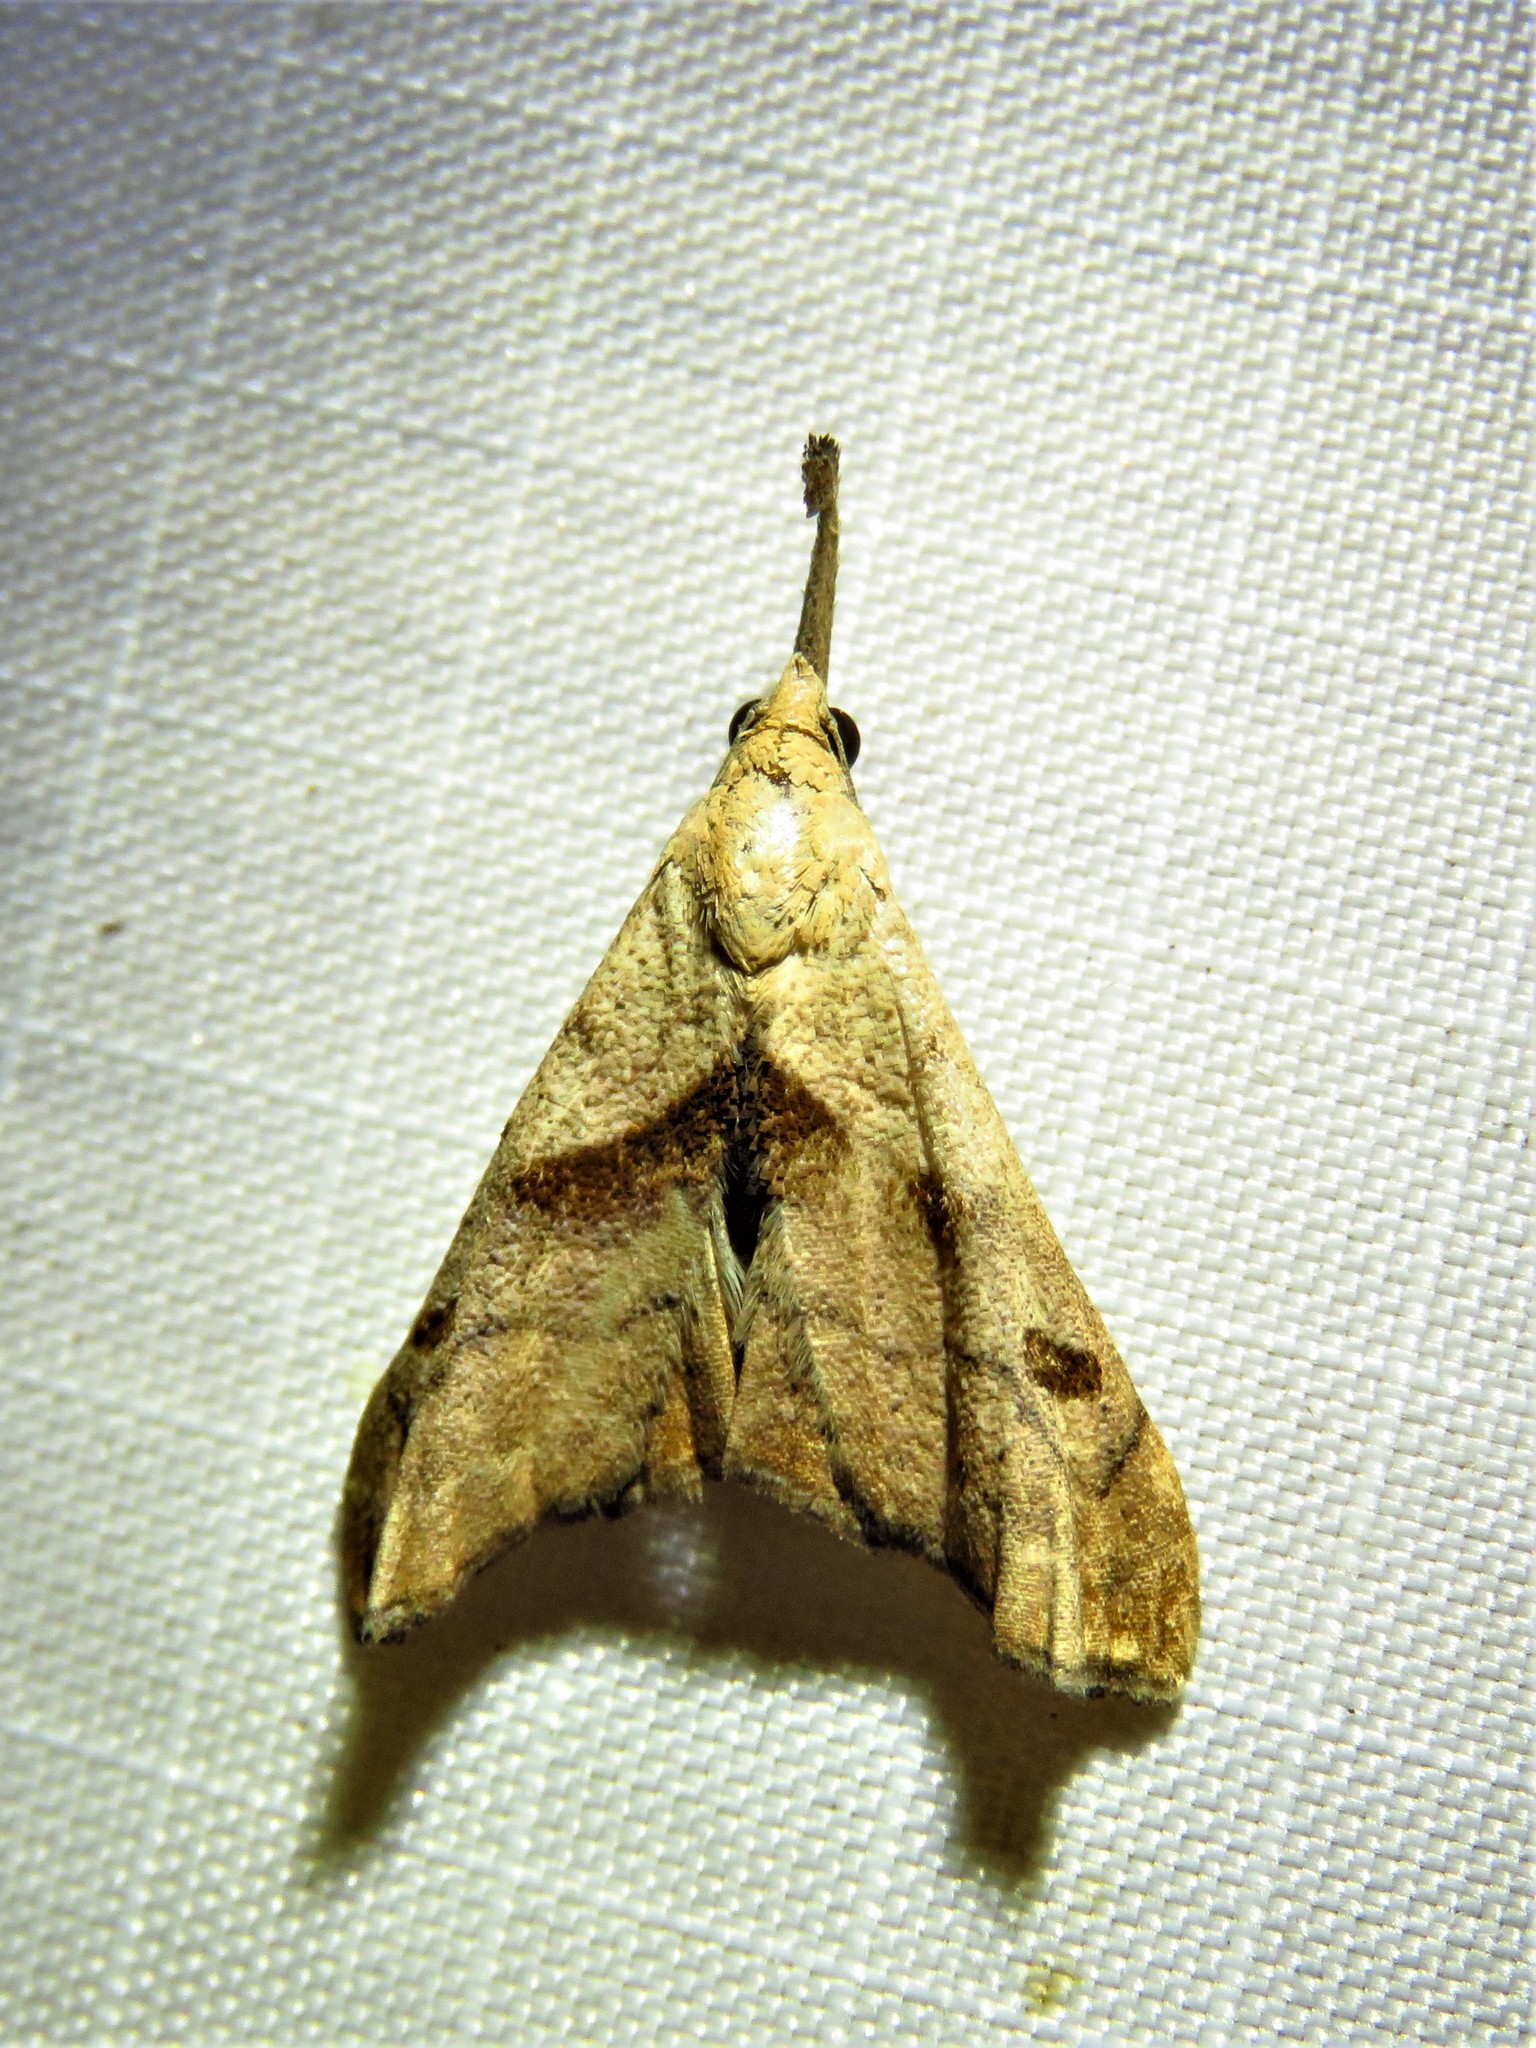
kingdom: Animalia
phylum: Arthropoda
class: Insecta
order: Lepidoptera
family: Erebidae
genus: Palthis
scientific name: Palthis angulalis
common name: Dark-spotted palthis moth
